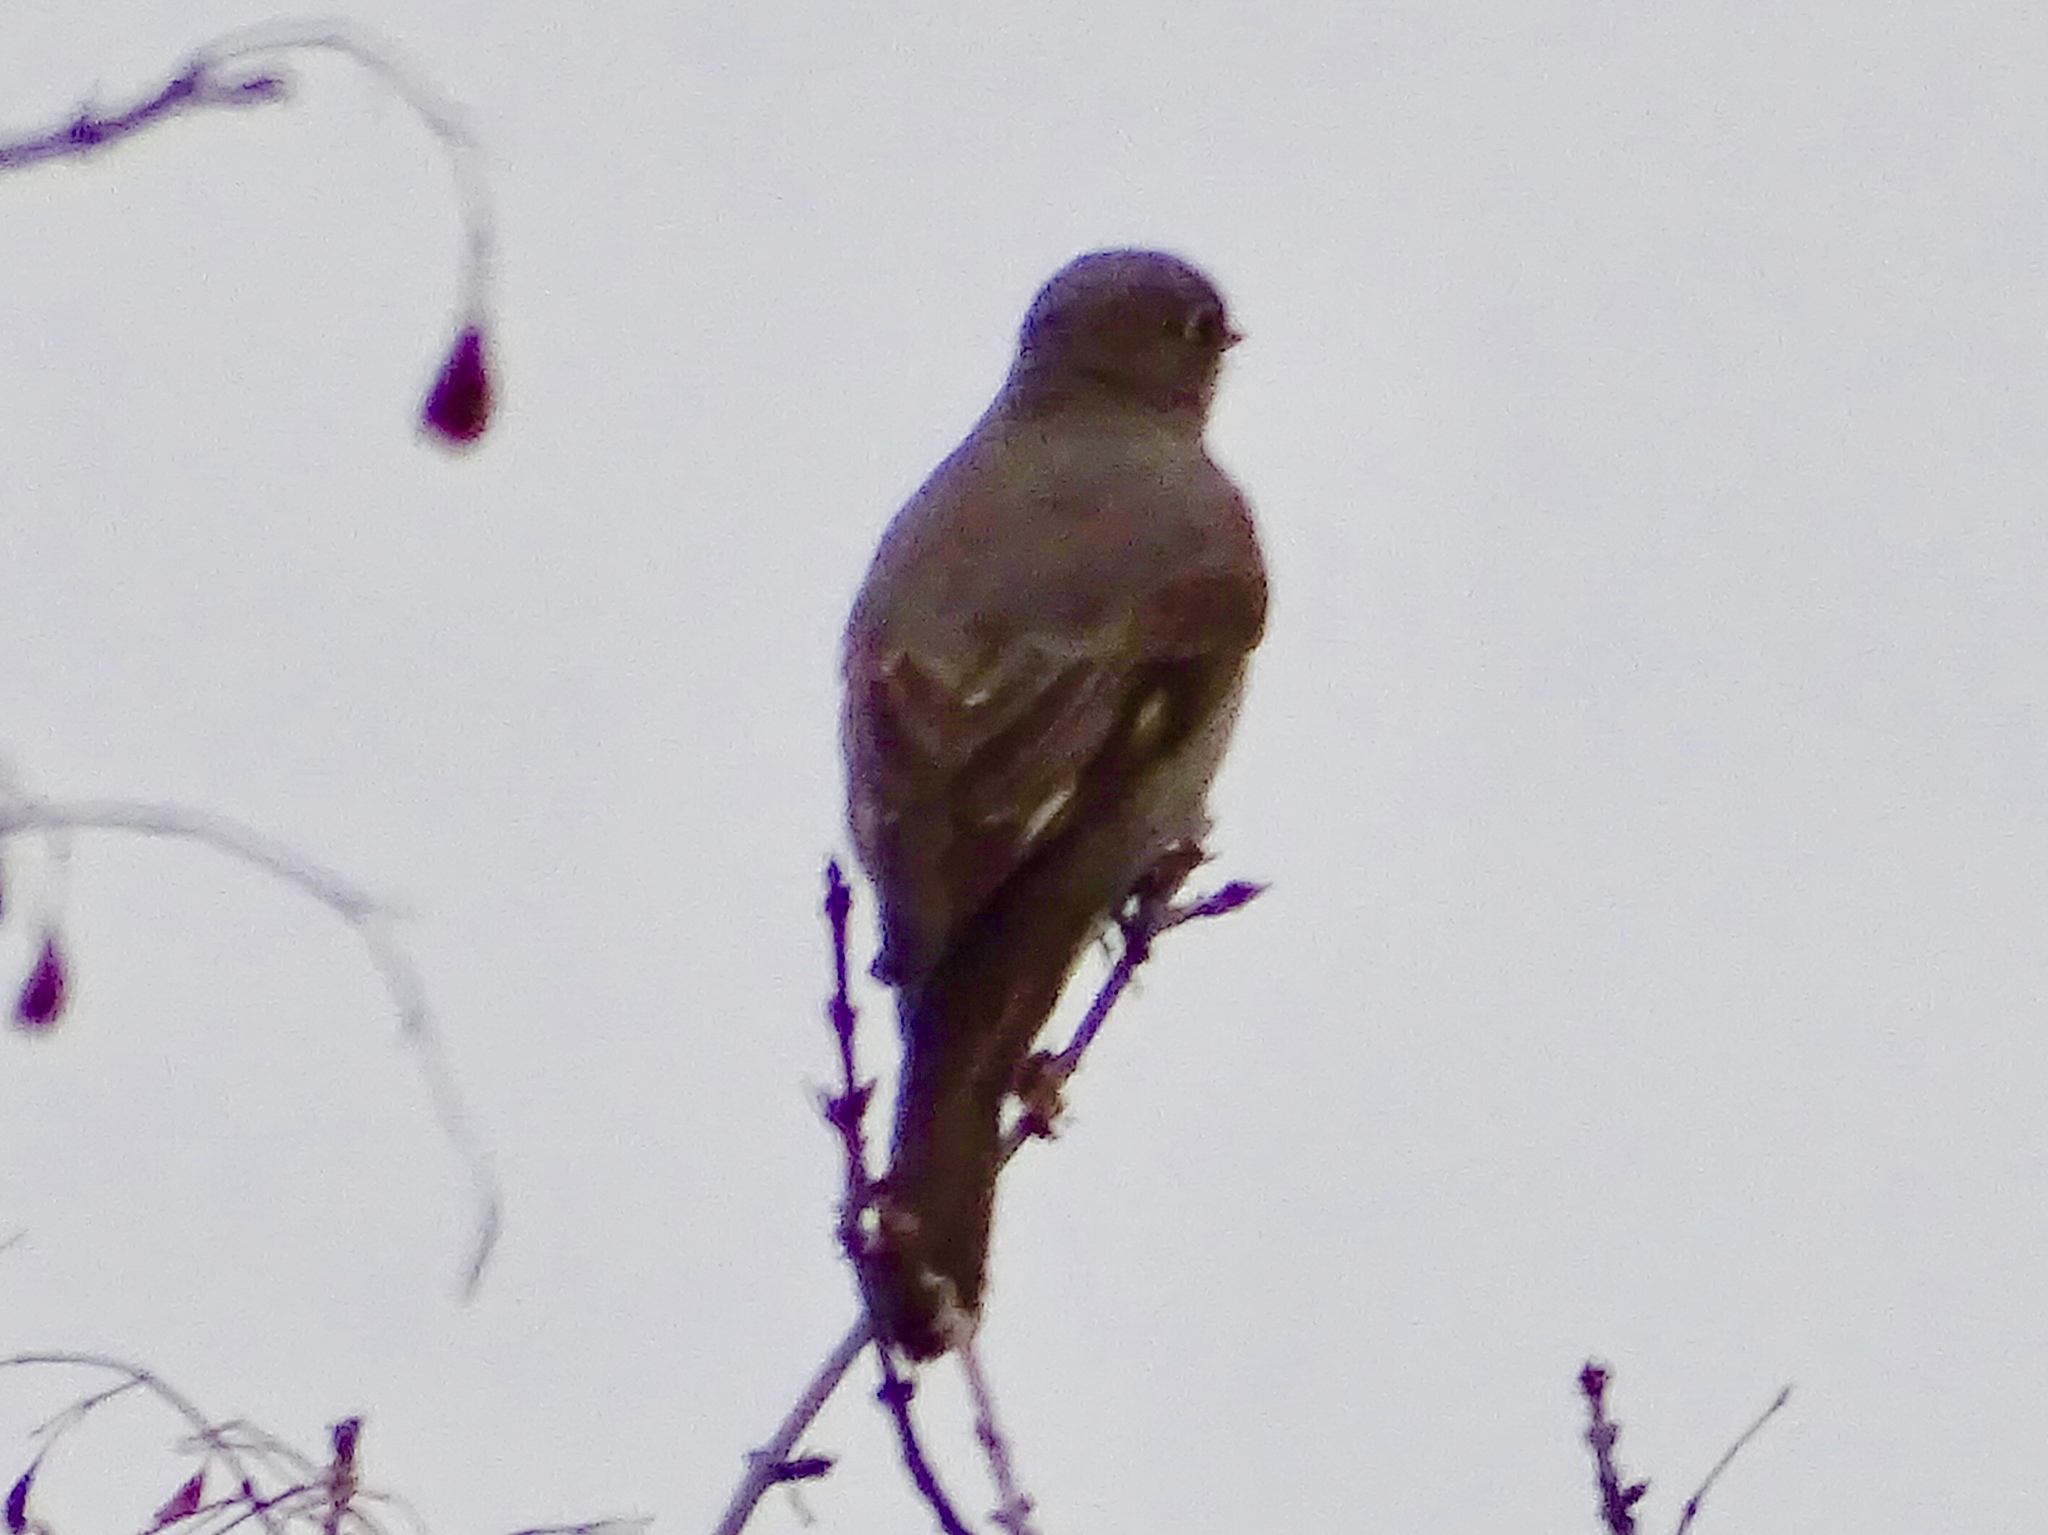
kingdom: Animalia
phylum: Chordata
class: Aves
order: Passeriformes
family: Turdidae
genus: Myadestes
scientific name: Myadestes townsendi
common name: Townsend's solitaire
